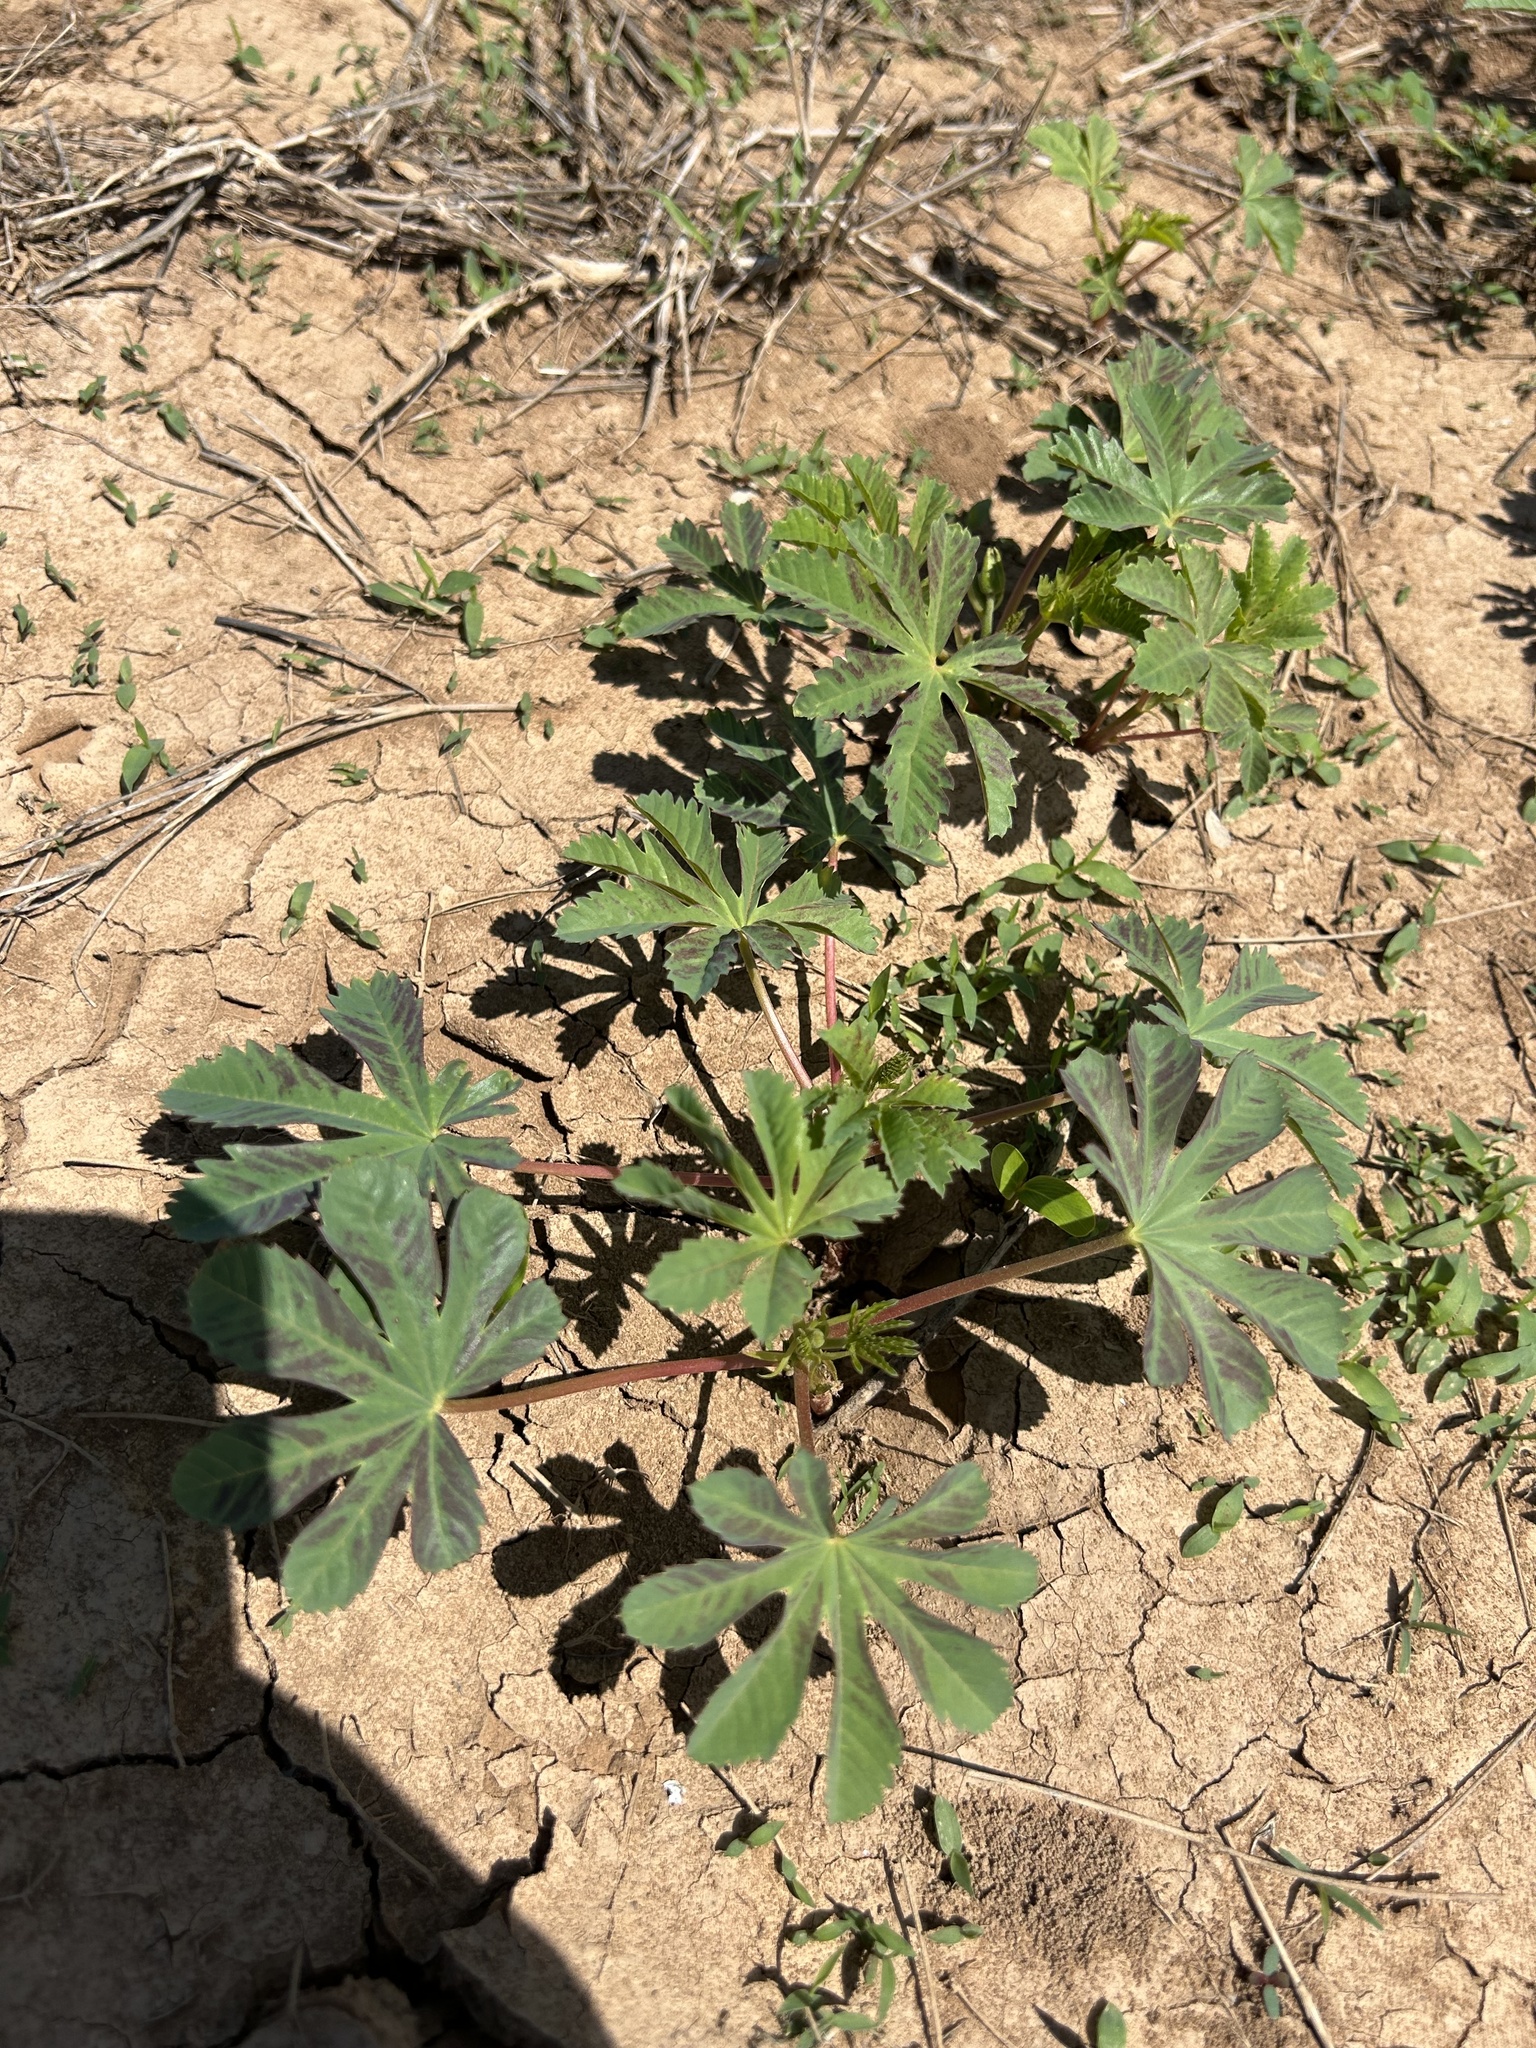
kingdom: Plantae
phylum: Tracheophyta
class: Magnoliopsida
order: Malvales
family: Cochlospermaceae
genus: Cochlospermum
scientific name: Cochlospermum palmatifidum
